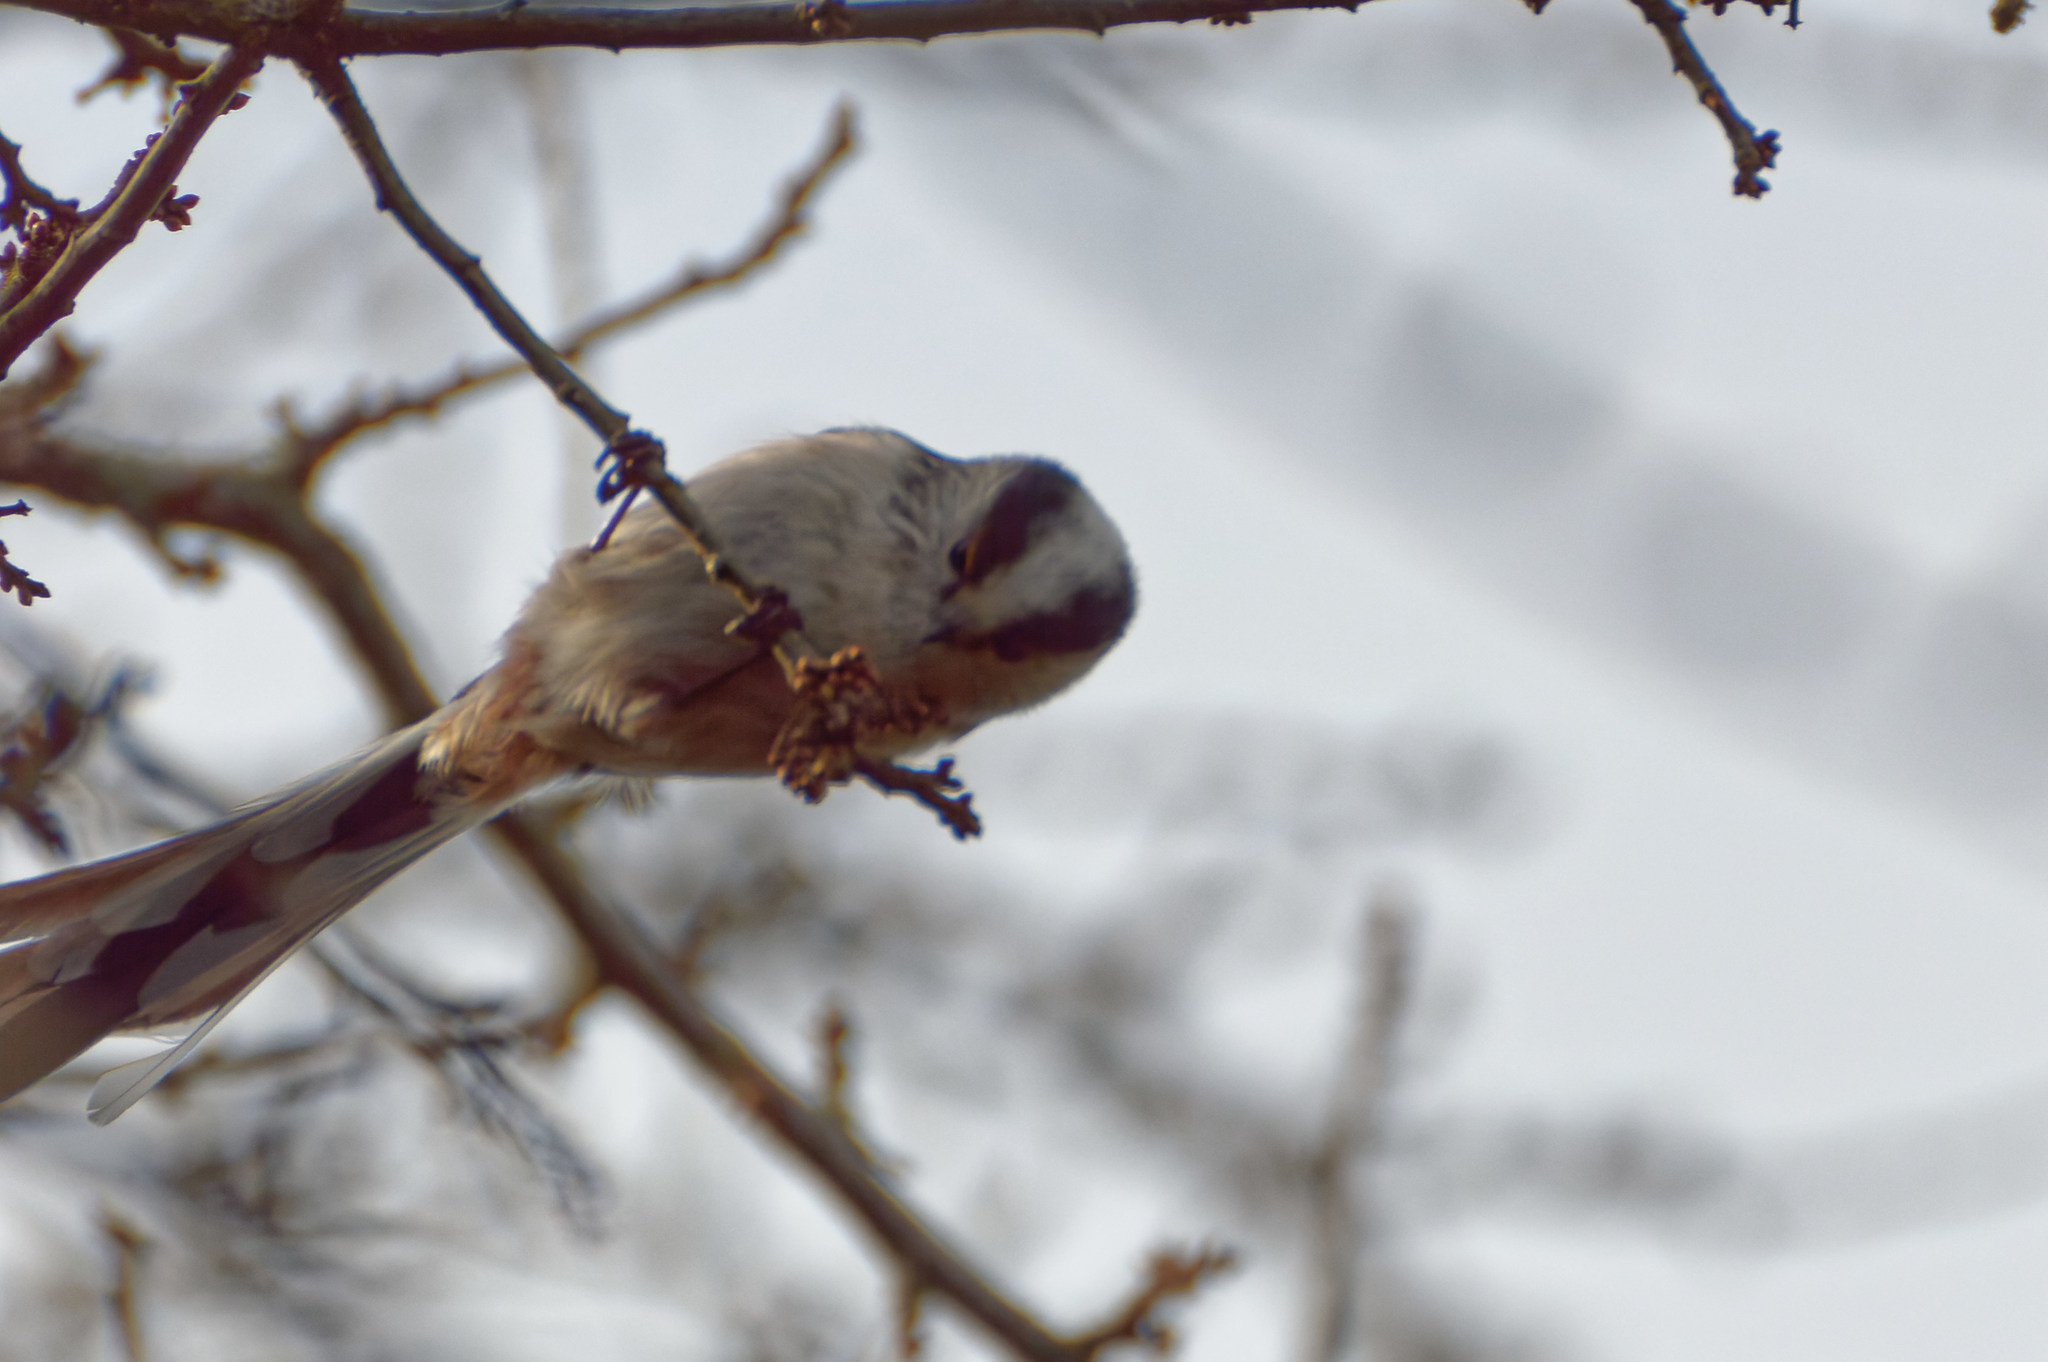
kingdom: Animalia
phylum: Chordata
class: Aves
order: Passeriformes
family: Aegithalidae
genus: Aegithalos
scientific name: Aegithalos caudatus
